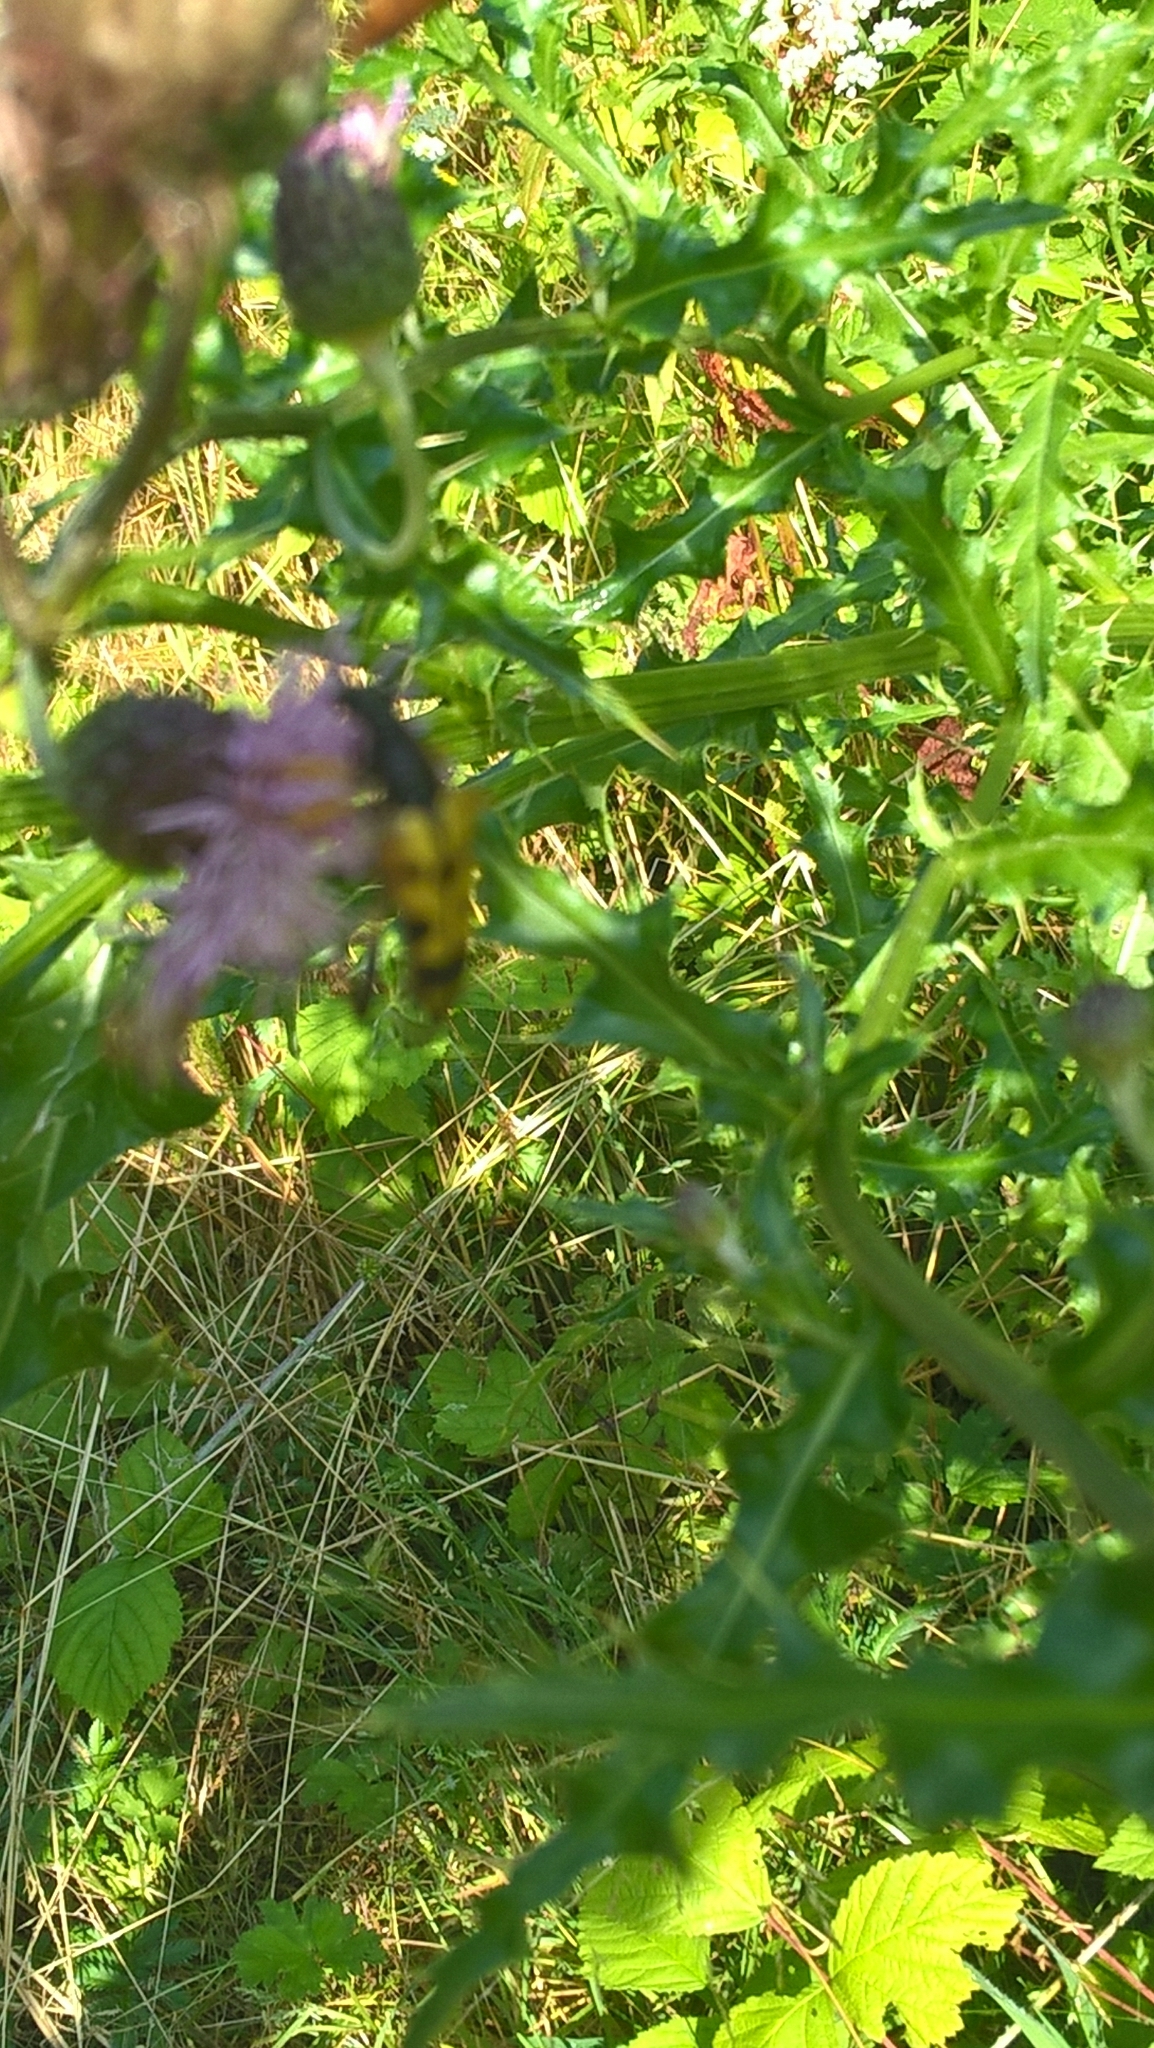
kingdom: Animalia
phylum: Arthropoda
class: Insecta
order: Coleoptera
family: Cerambycidae
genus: Rutpela
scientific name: Rutpela maculata
